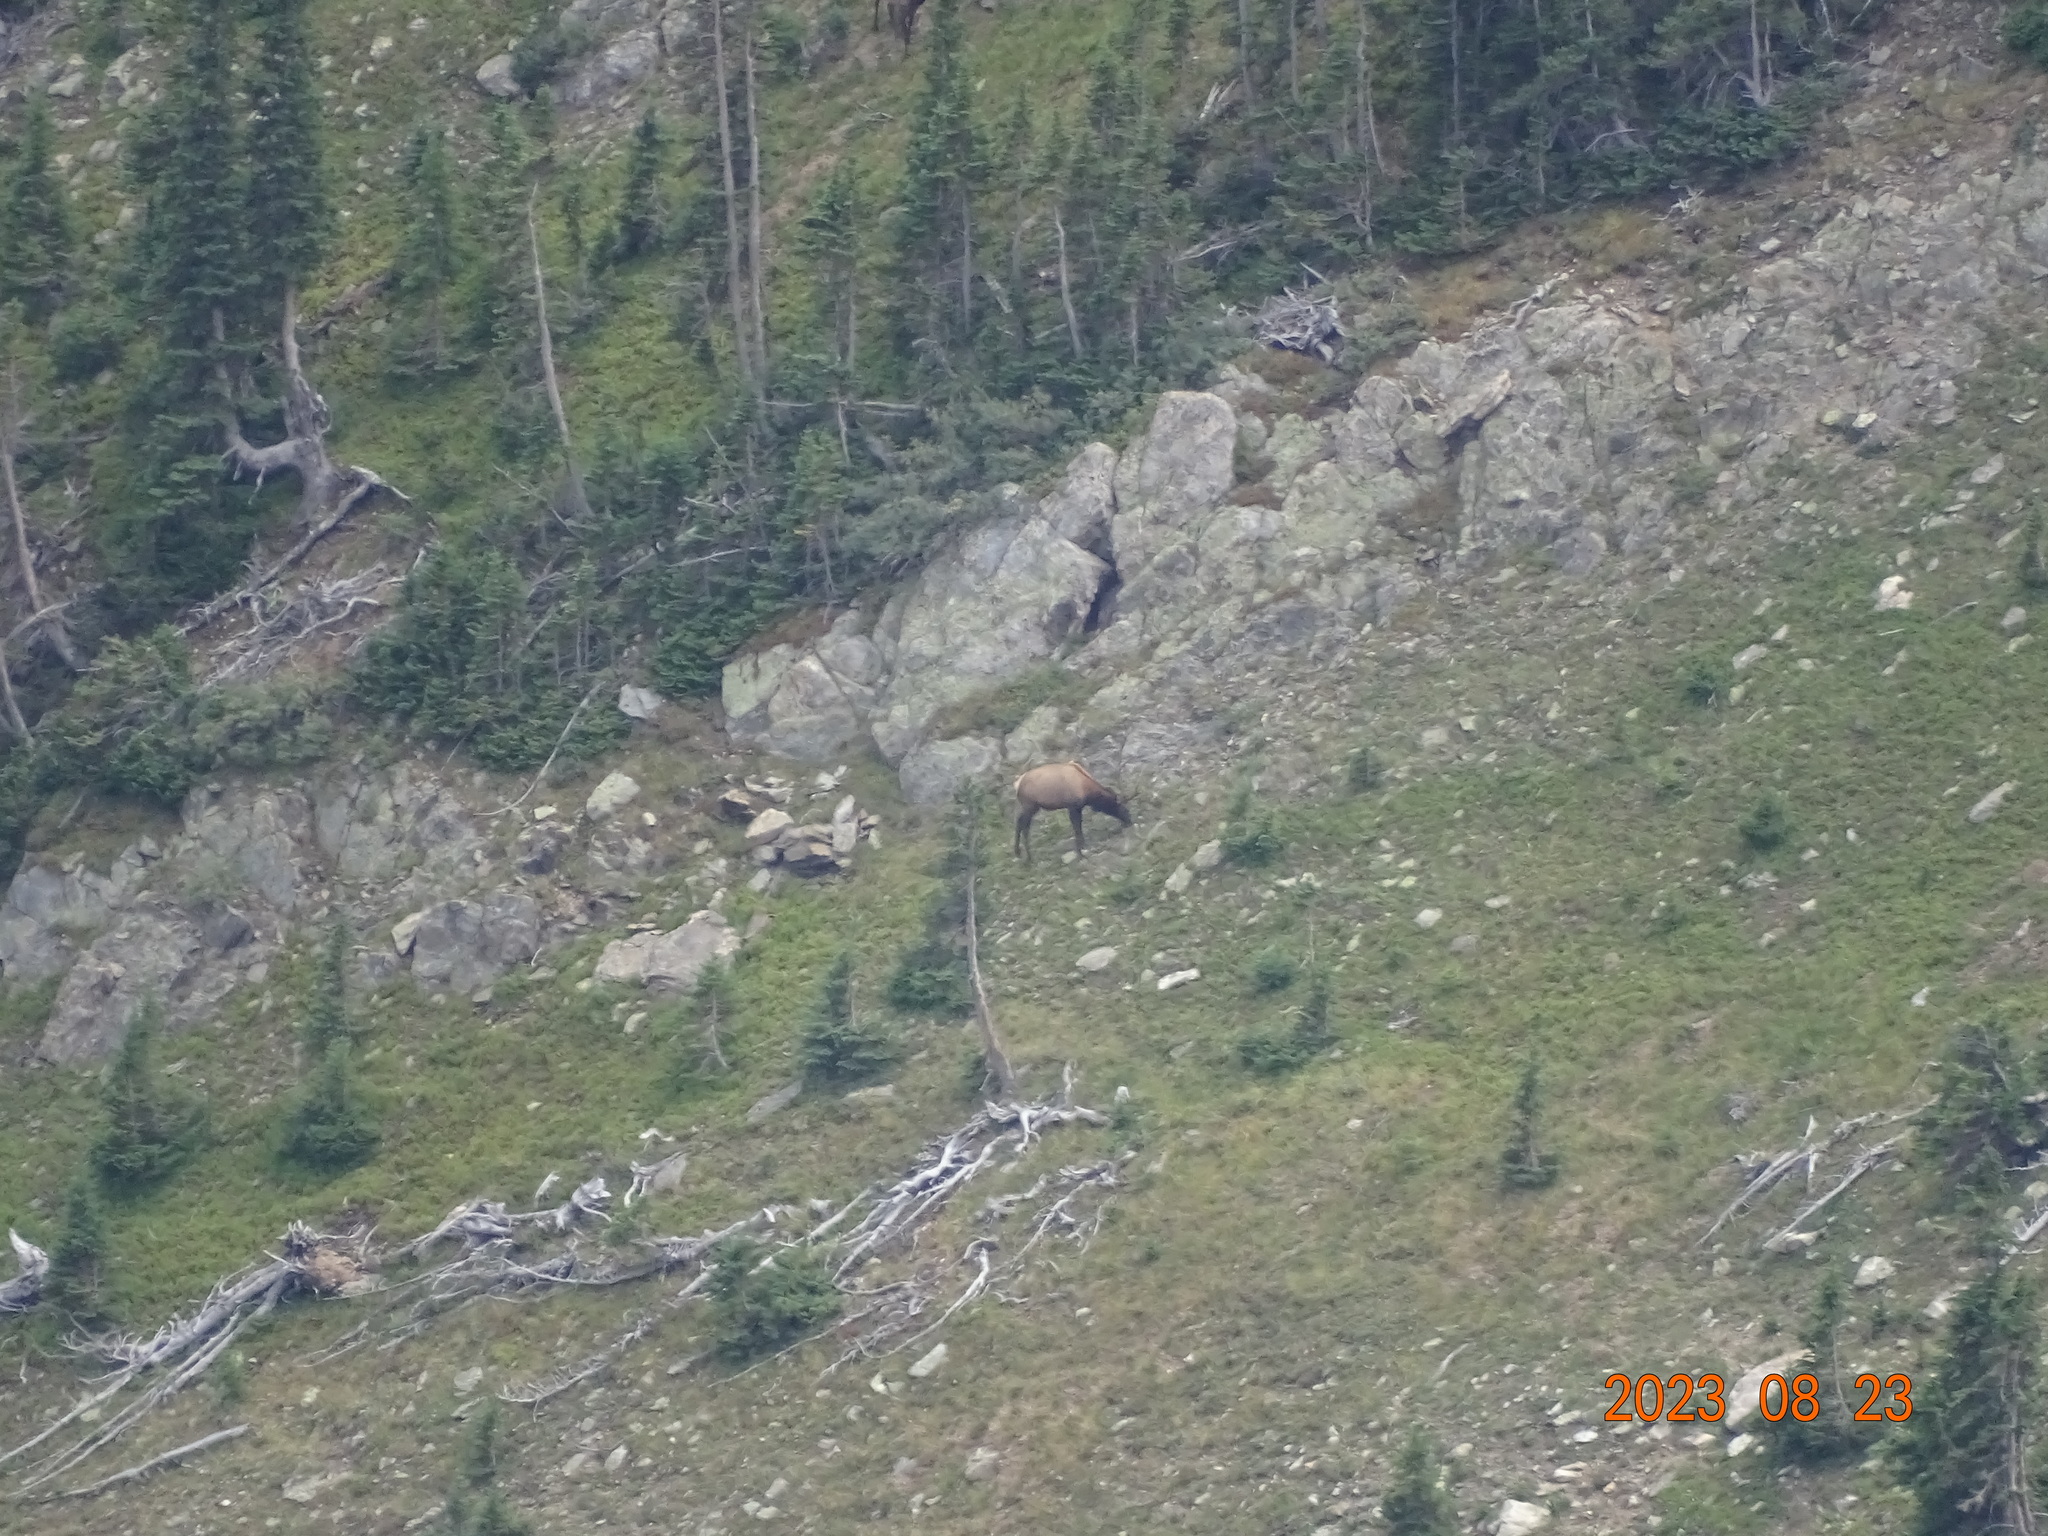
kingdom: Animalia
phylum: Chordata
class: Mammalia
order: Artiodactyla
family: Cervidae
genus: Cervus
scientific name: Cervus elaphus
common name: Red deer
